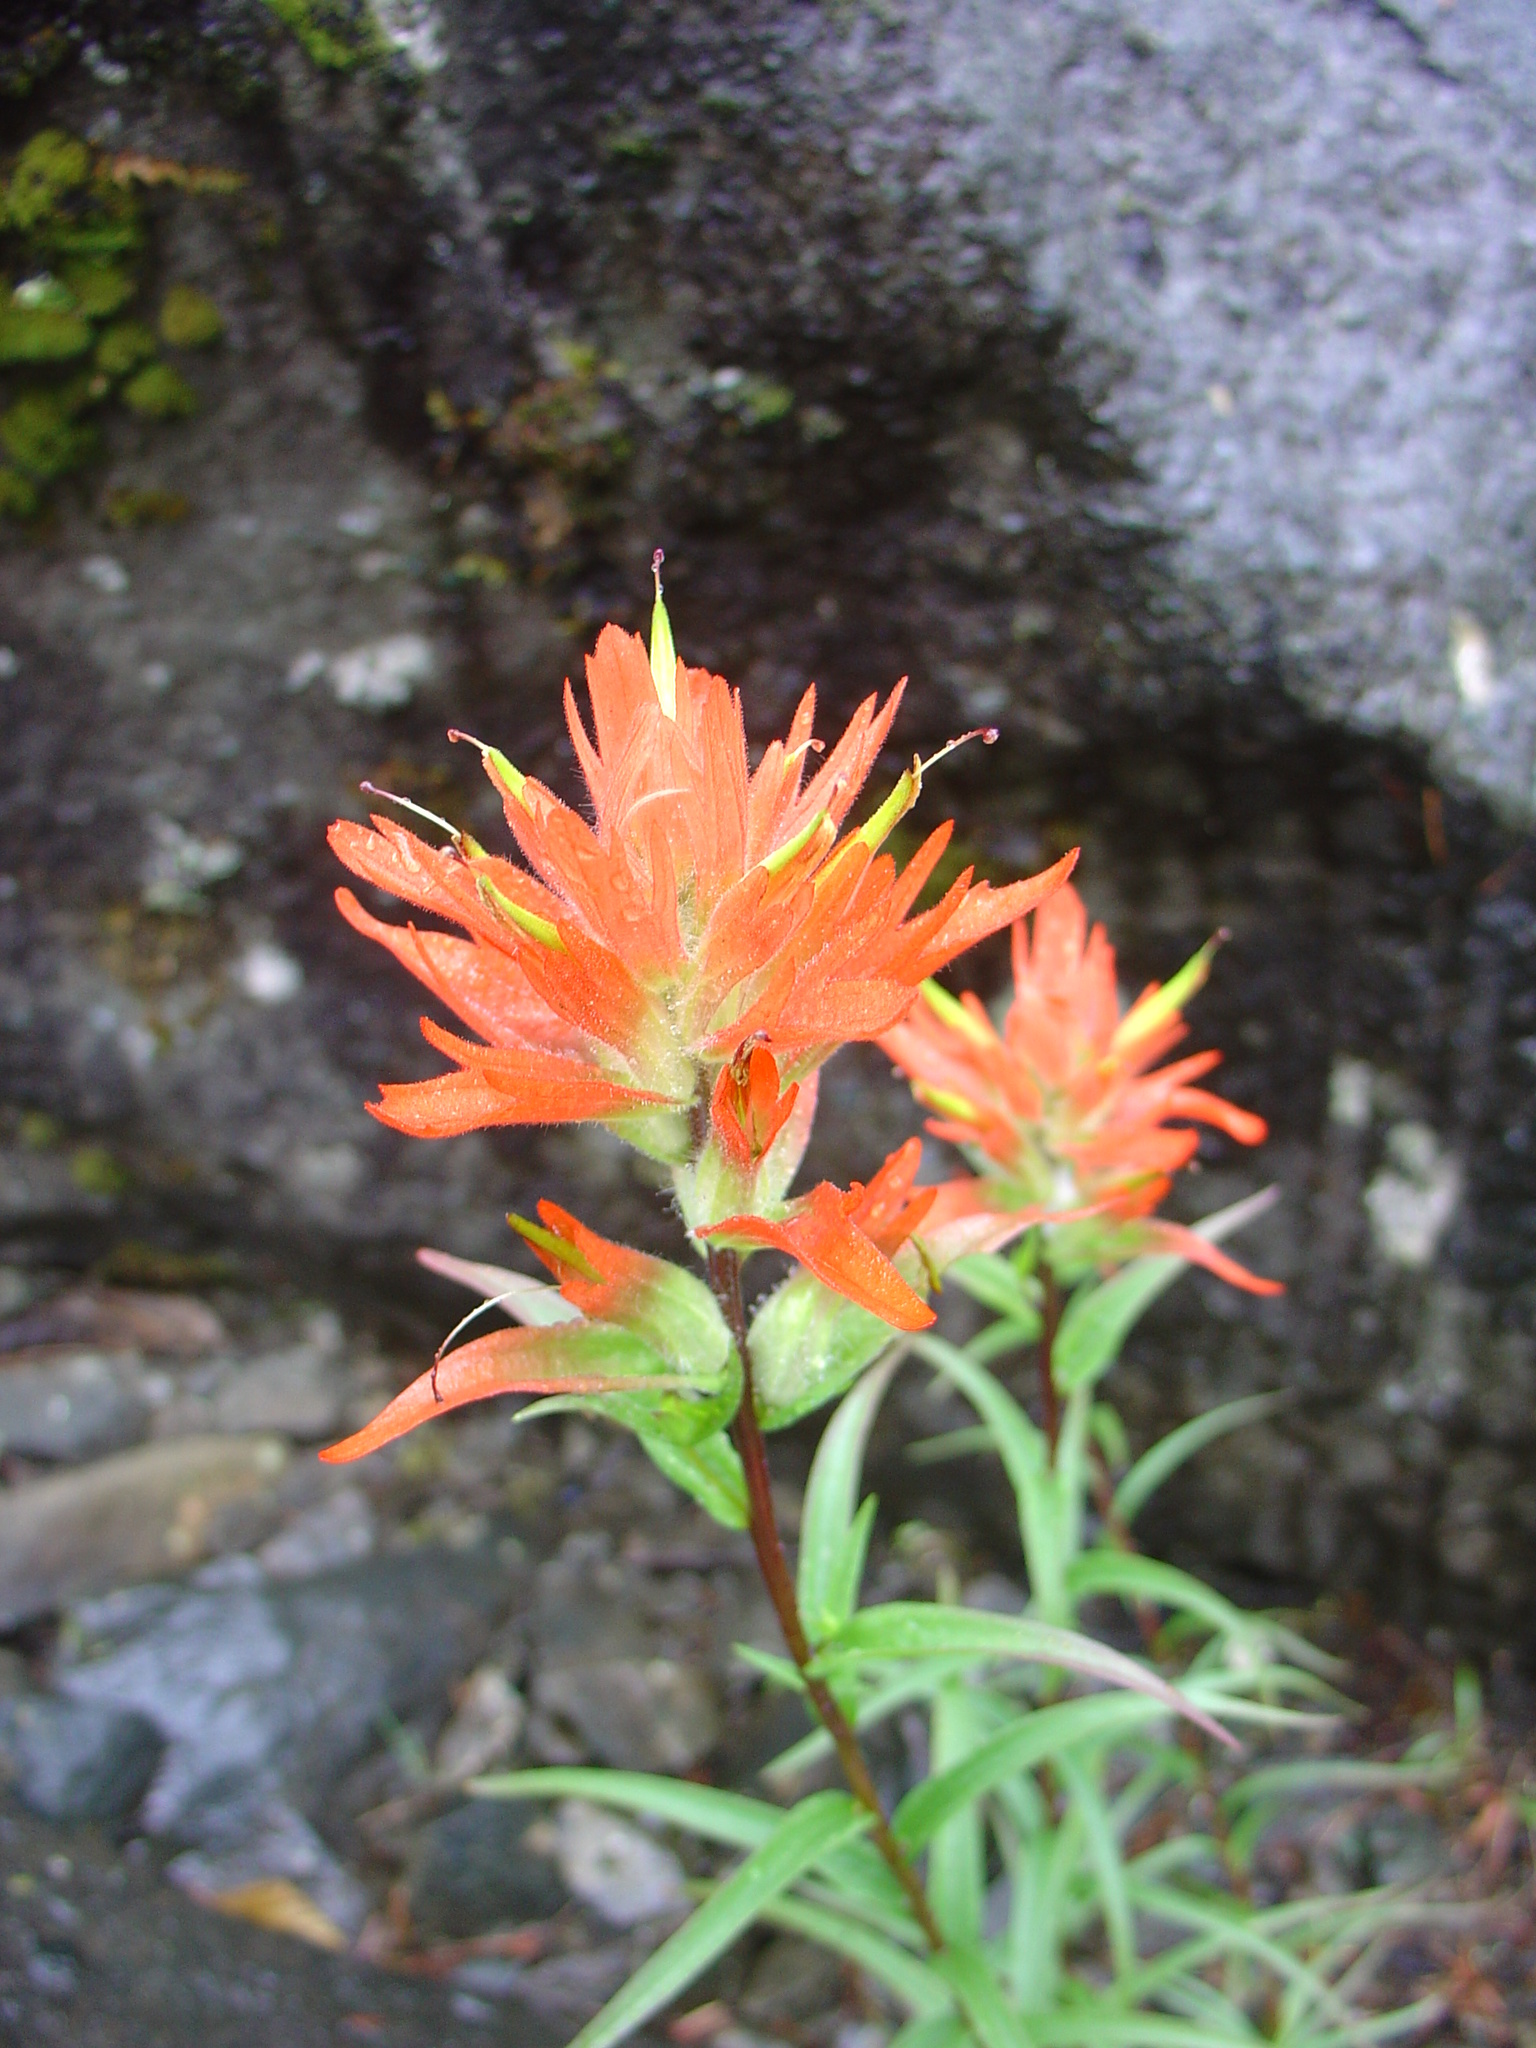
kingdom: Plantae
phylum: Tracheophyta
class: Magnoliopsida
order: Lamiales
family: Orobanchaceae
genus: Castilleja
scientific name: Castilleja miniata
